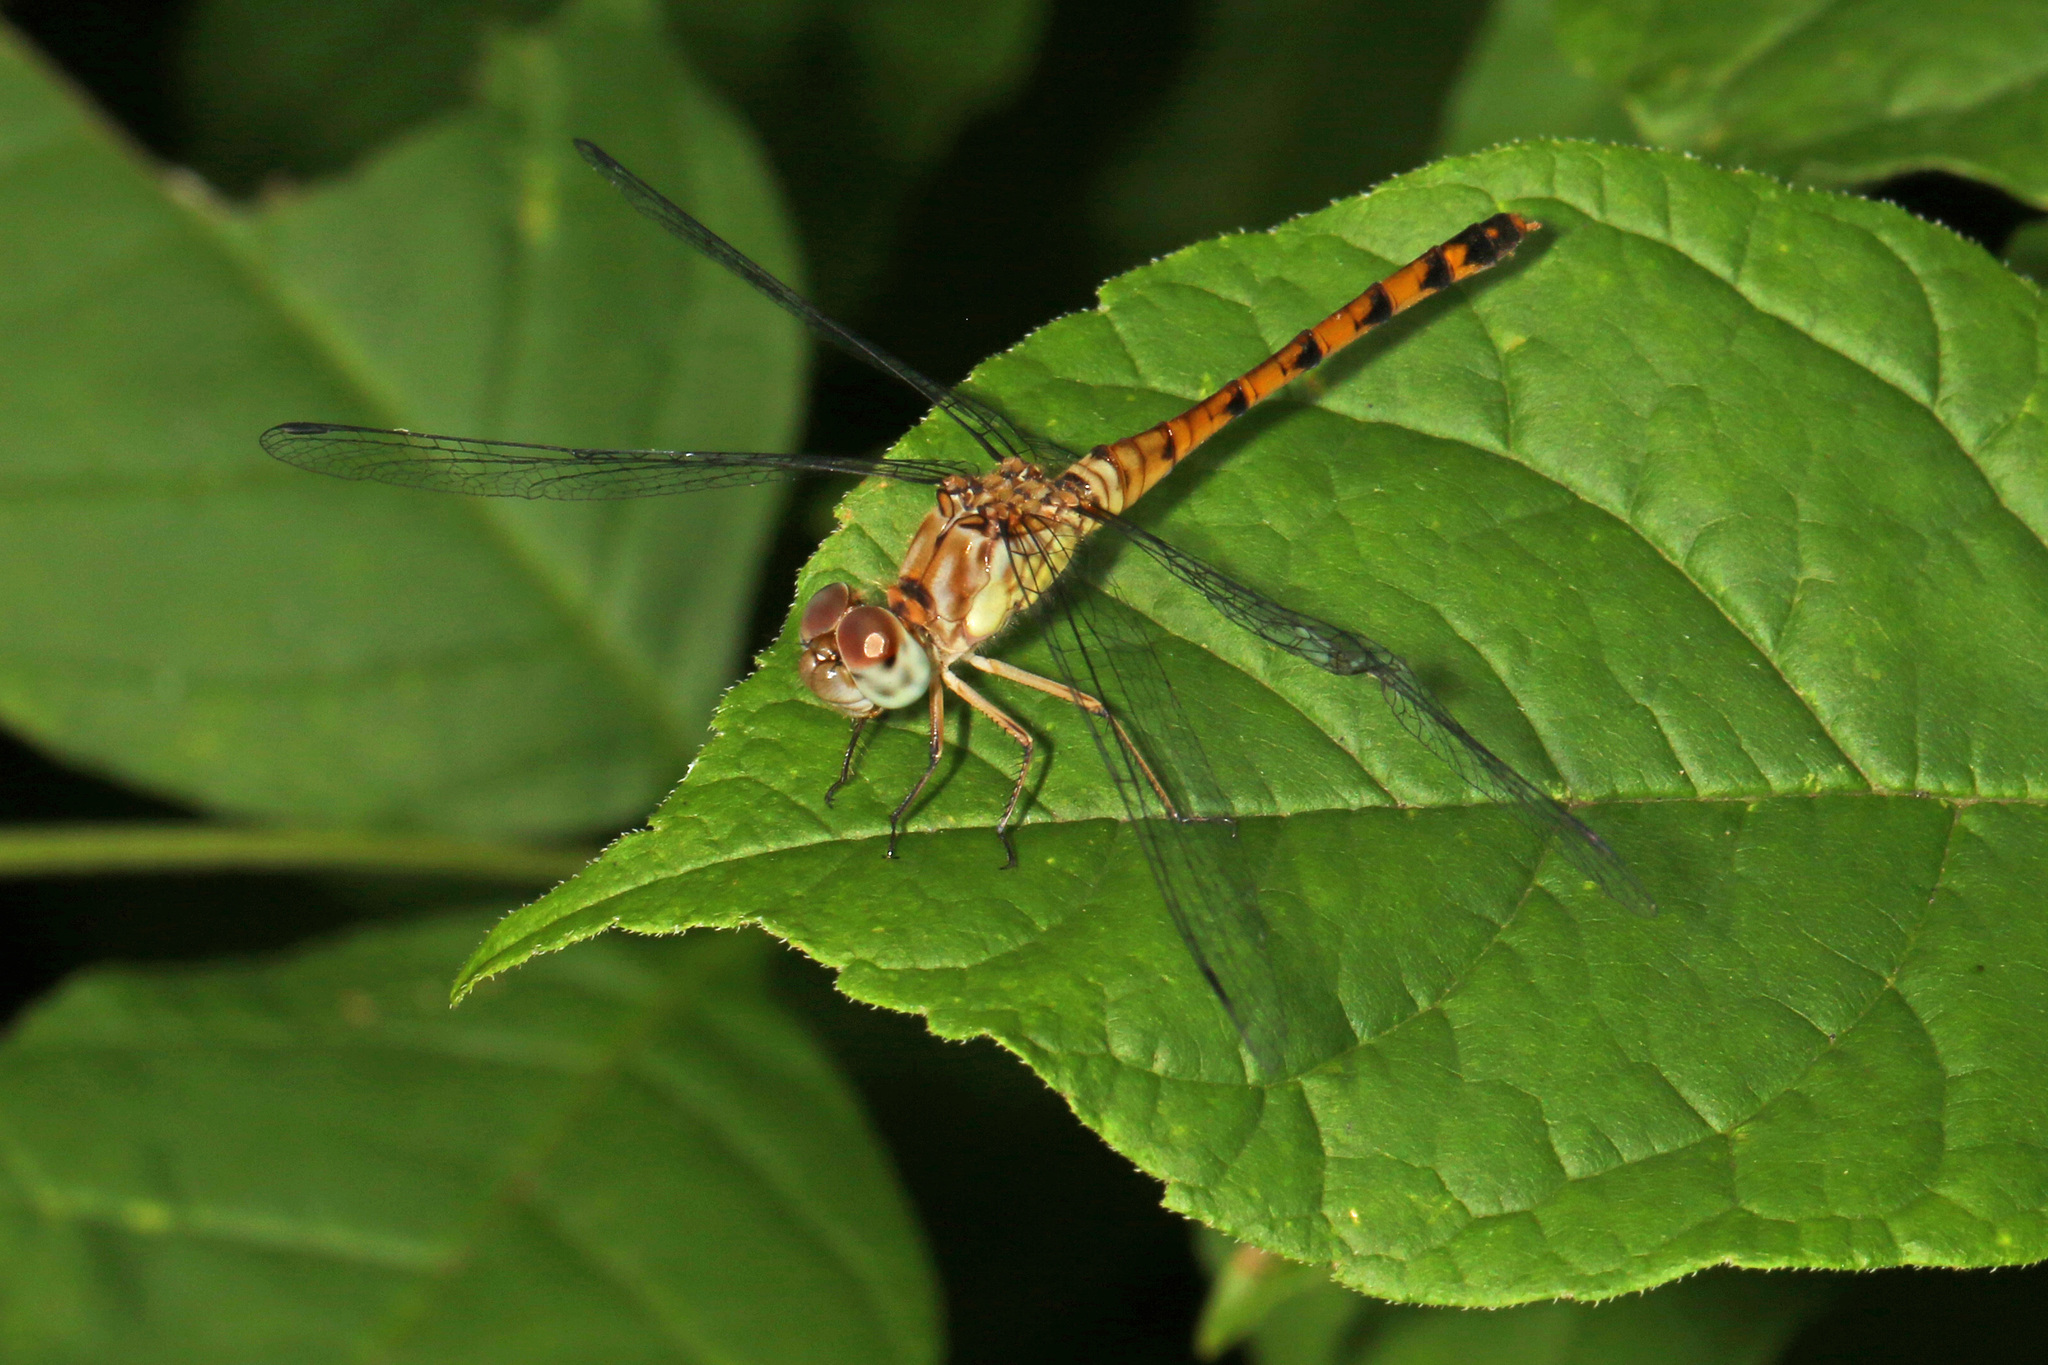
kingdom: Animalia
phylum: Arthropoda
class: Insecta
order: Odonata
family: Libellulidae
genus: Sympetrum
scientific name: Sympetrum ambiguum
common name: Blue-faced meadowhawk
